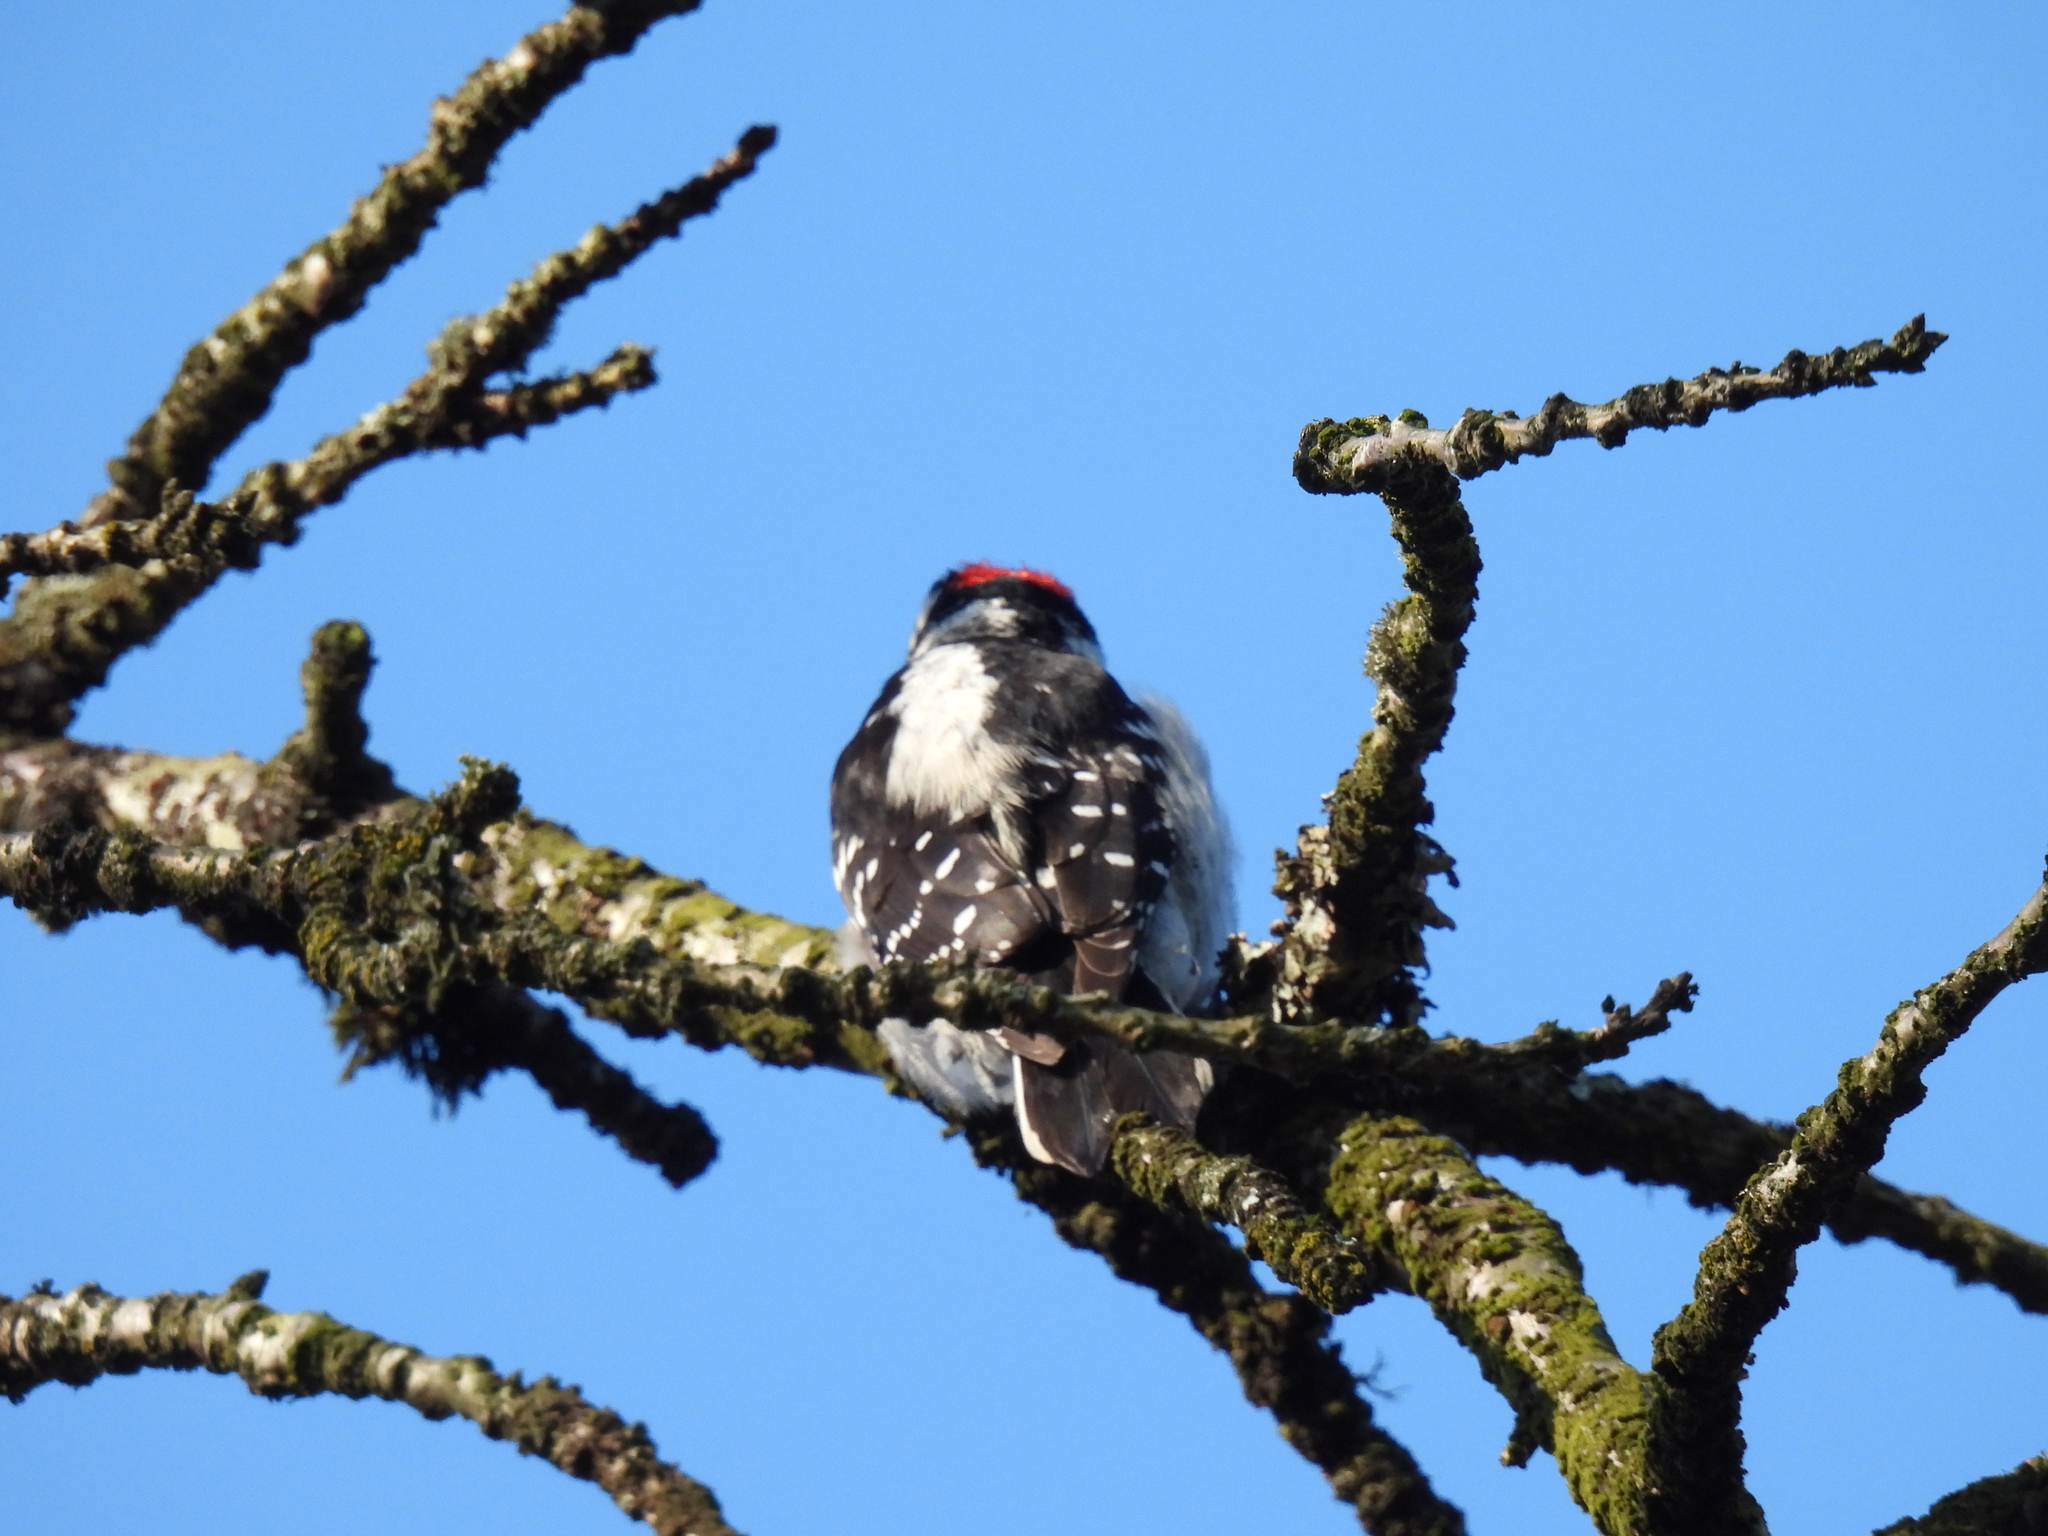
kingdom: Animalia
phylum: Chordata
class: Aves
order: Piciformes
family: Picidae
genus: Dryobates
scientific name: Dryobates pubescens
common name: Downy woodpecker
